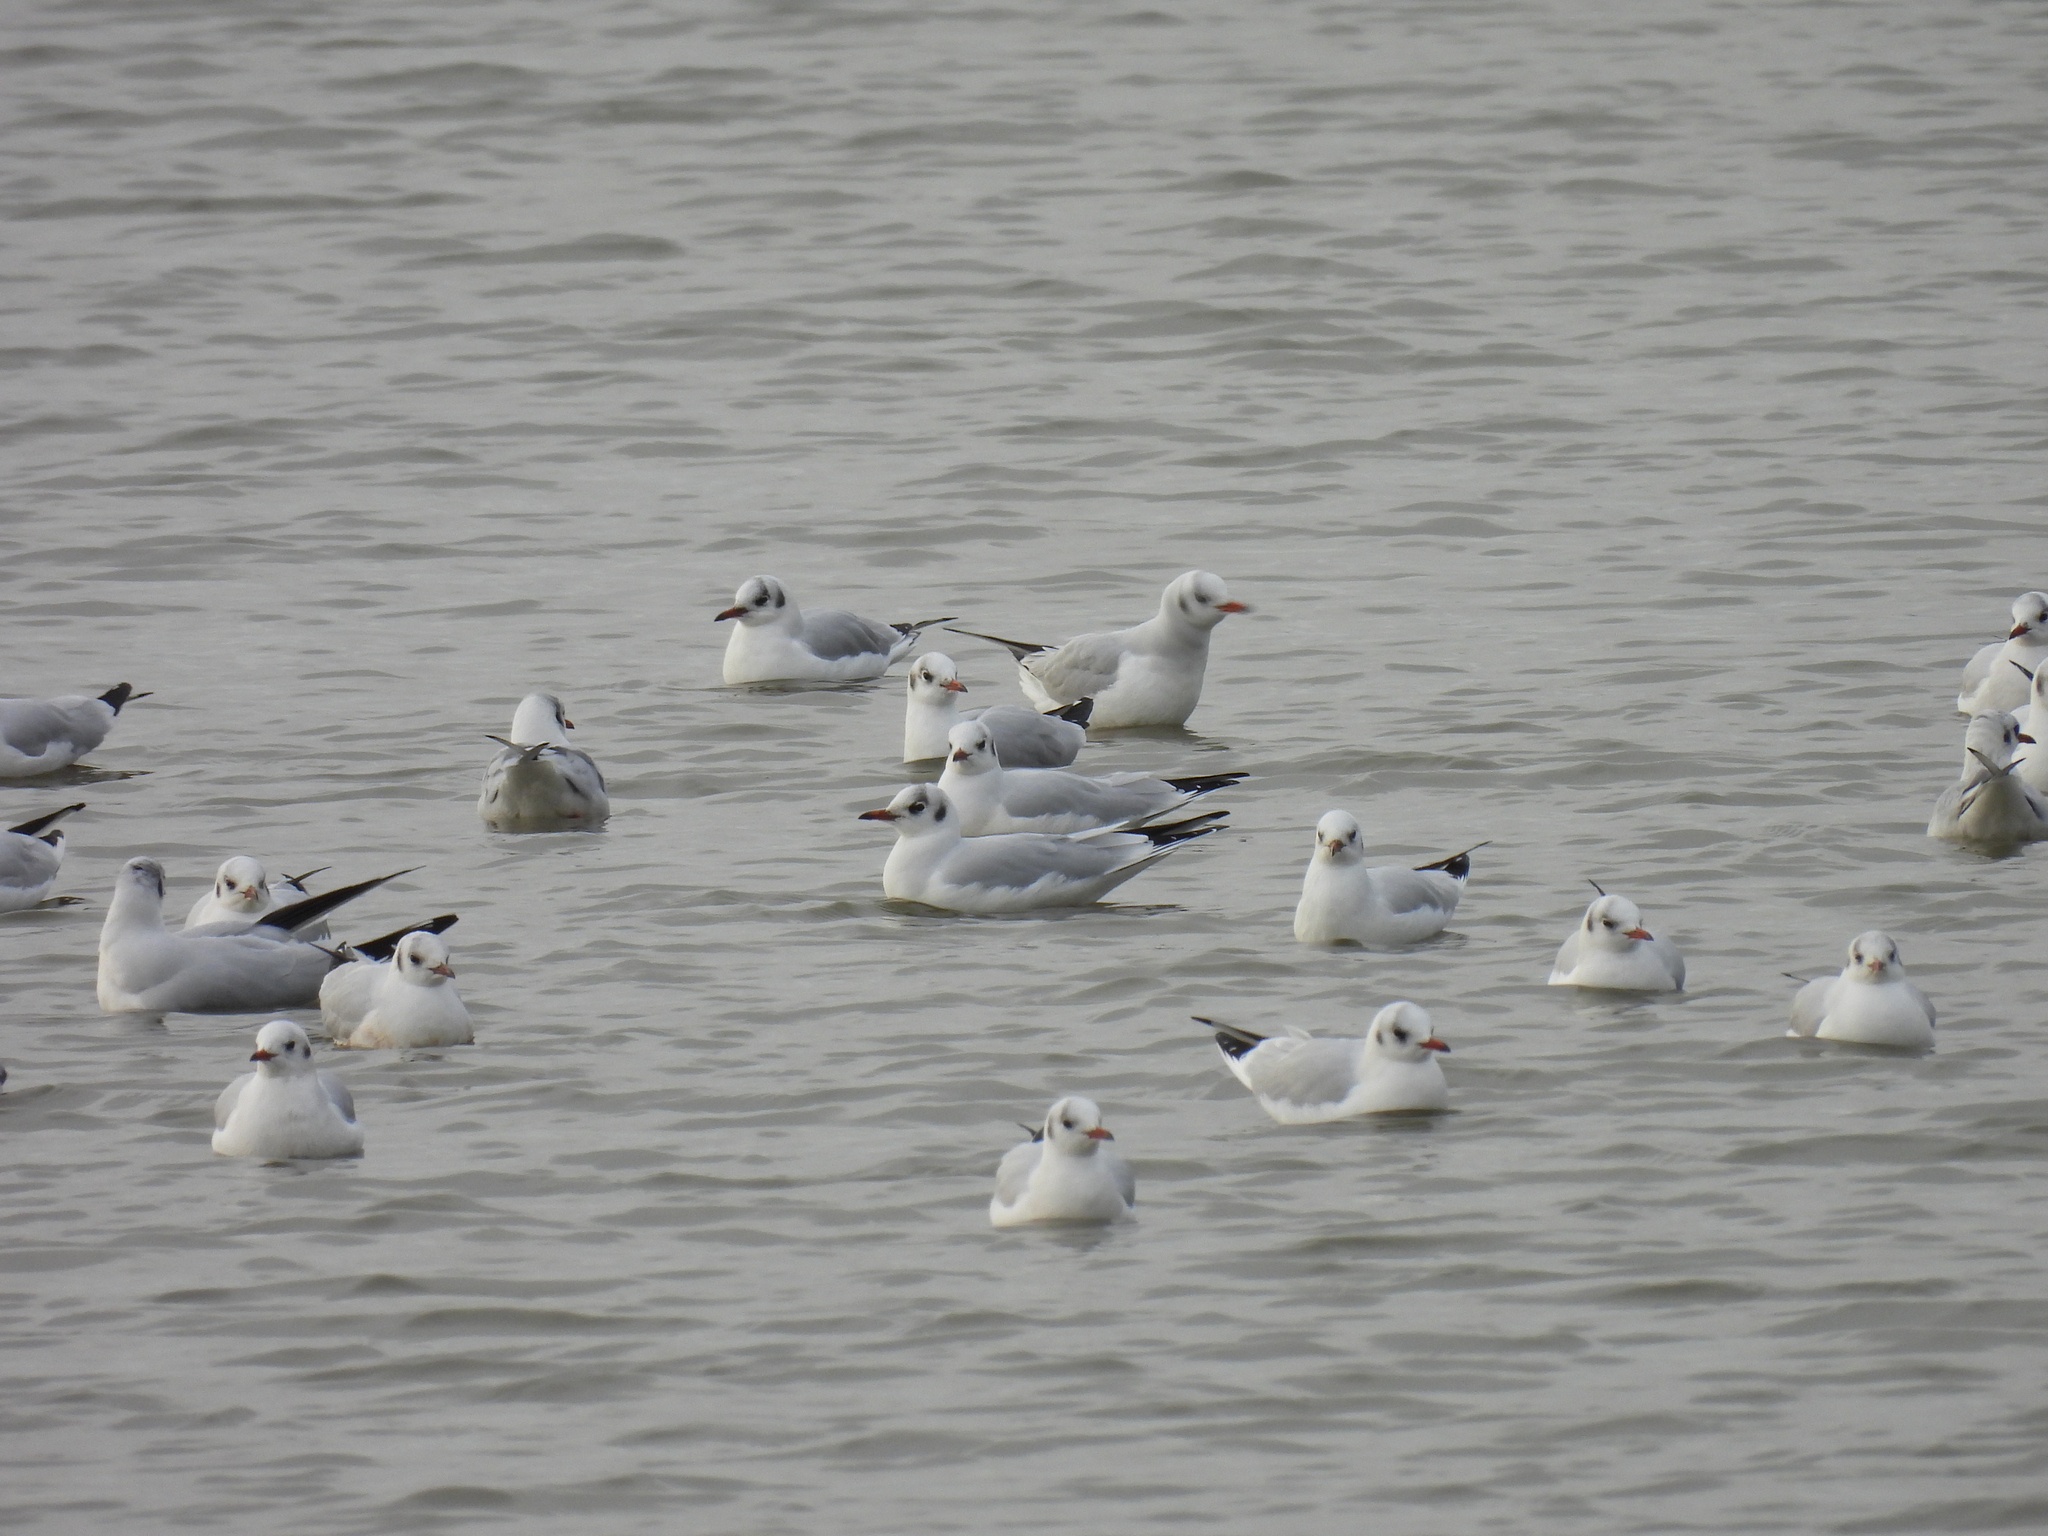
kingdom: Animalia
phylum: Chordata
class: Aves
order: Charadriiformes
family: Laridae
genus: Chroicocephalus
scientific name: Chroicocephalus ridibundus
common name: Black-headed gull
